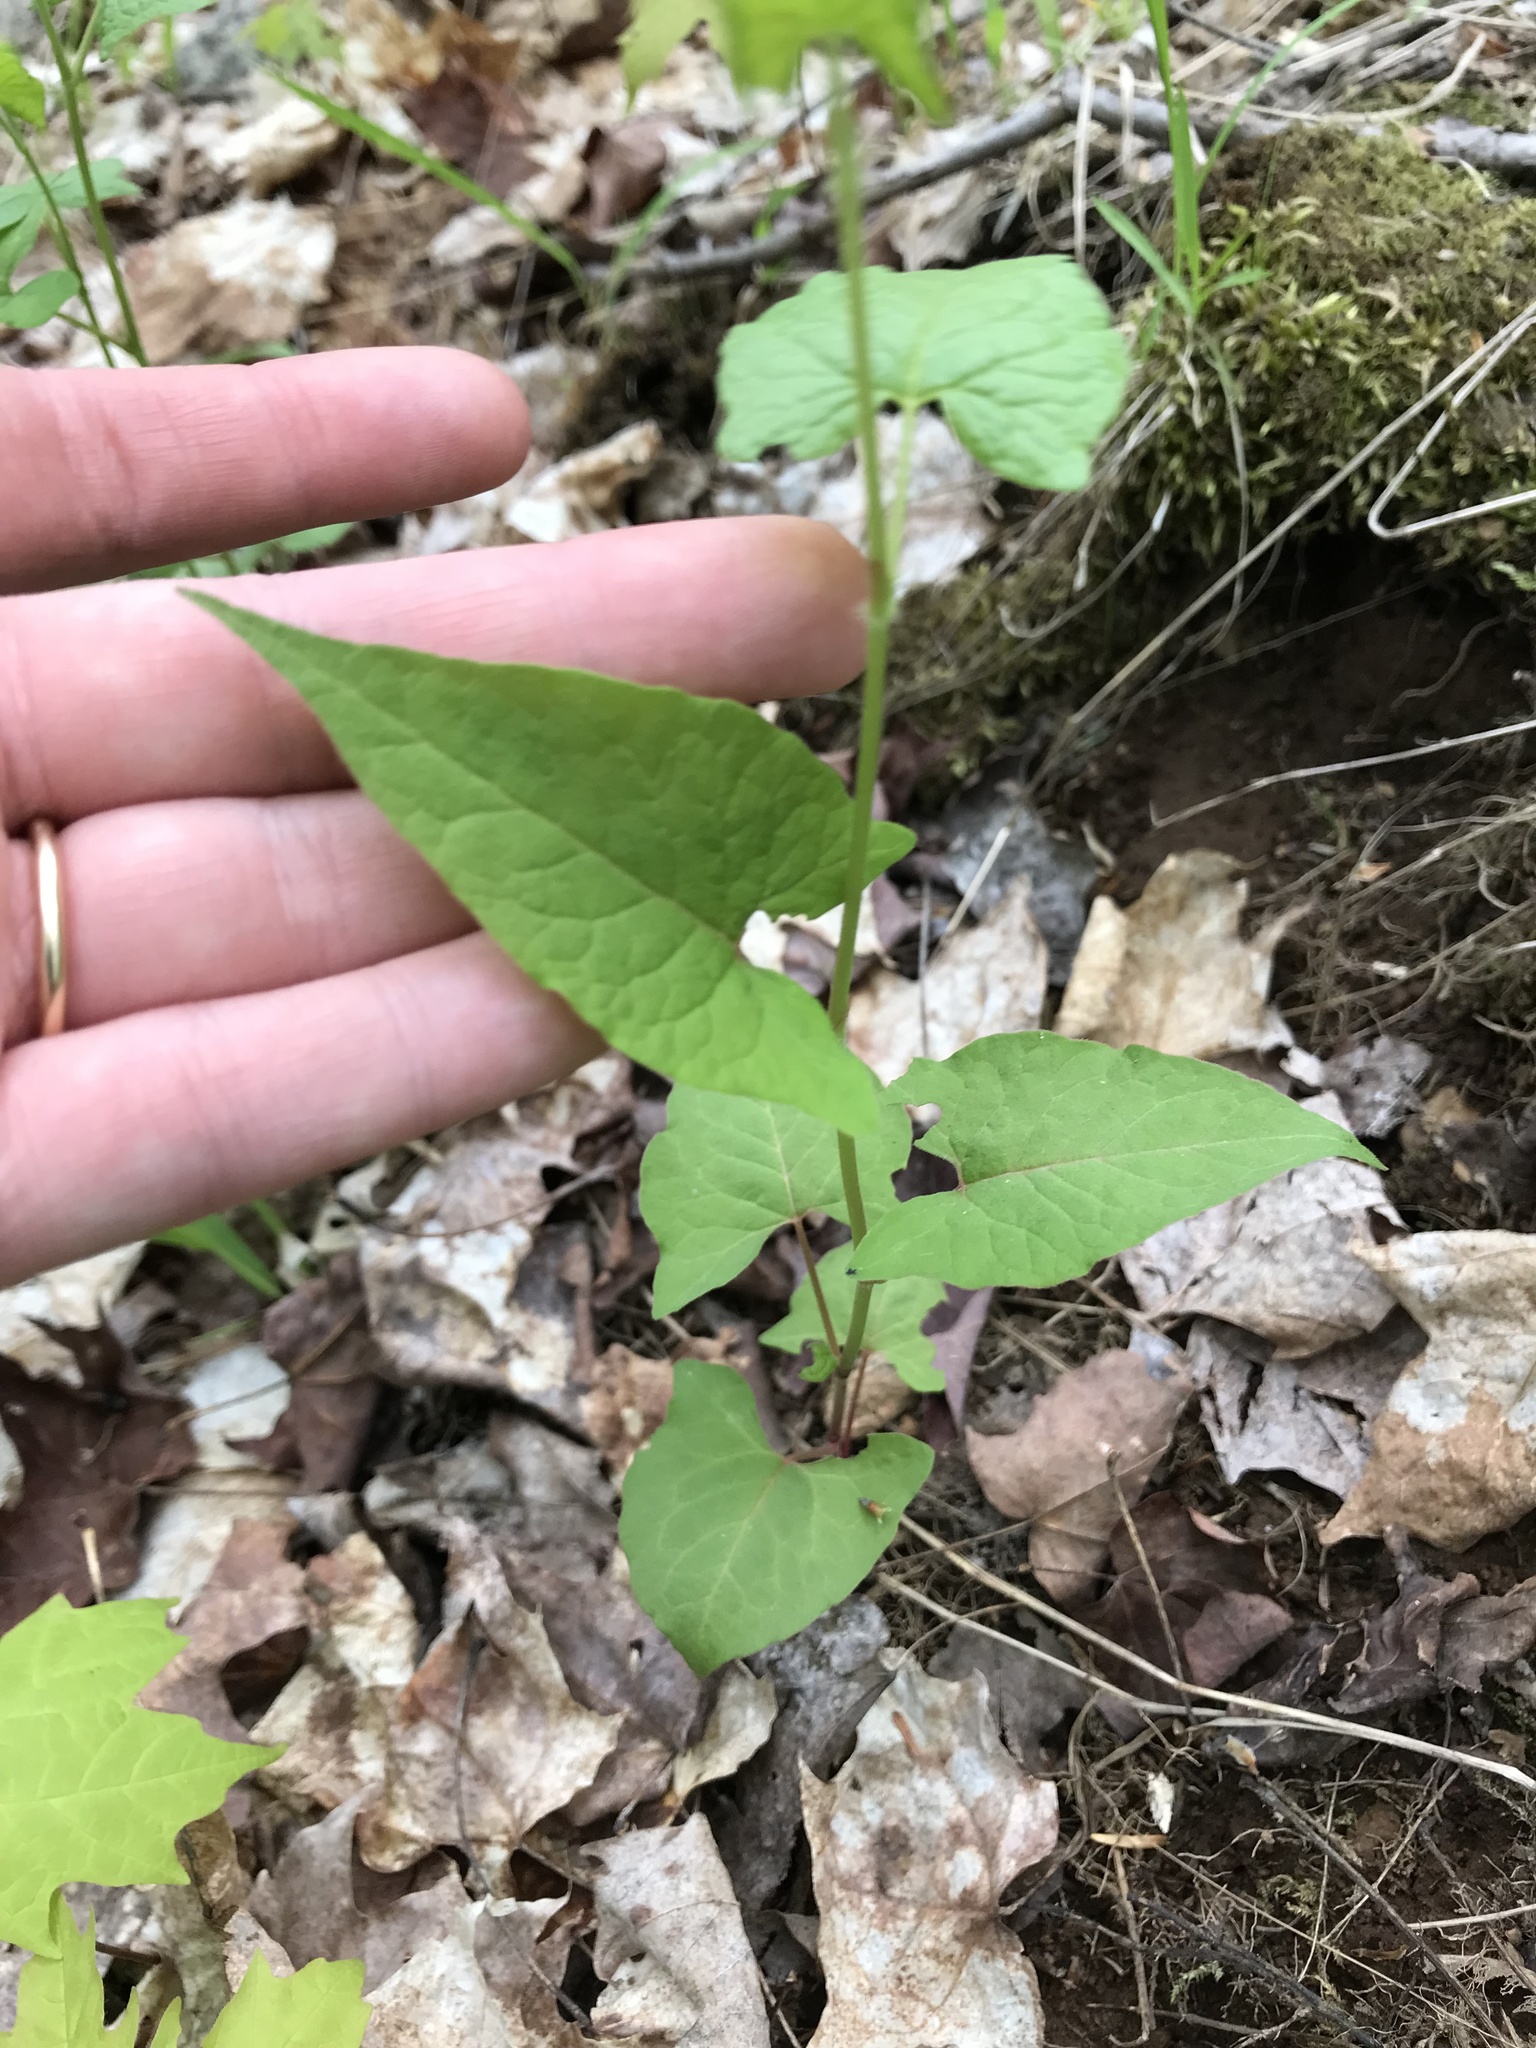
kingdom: Plantae
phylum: Tracheophyta
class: Magnoliopsida
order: Caryophyllales
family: Polygonaceae
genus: Parogonum
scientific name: Parogonum ciliinode
